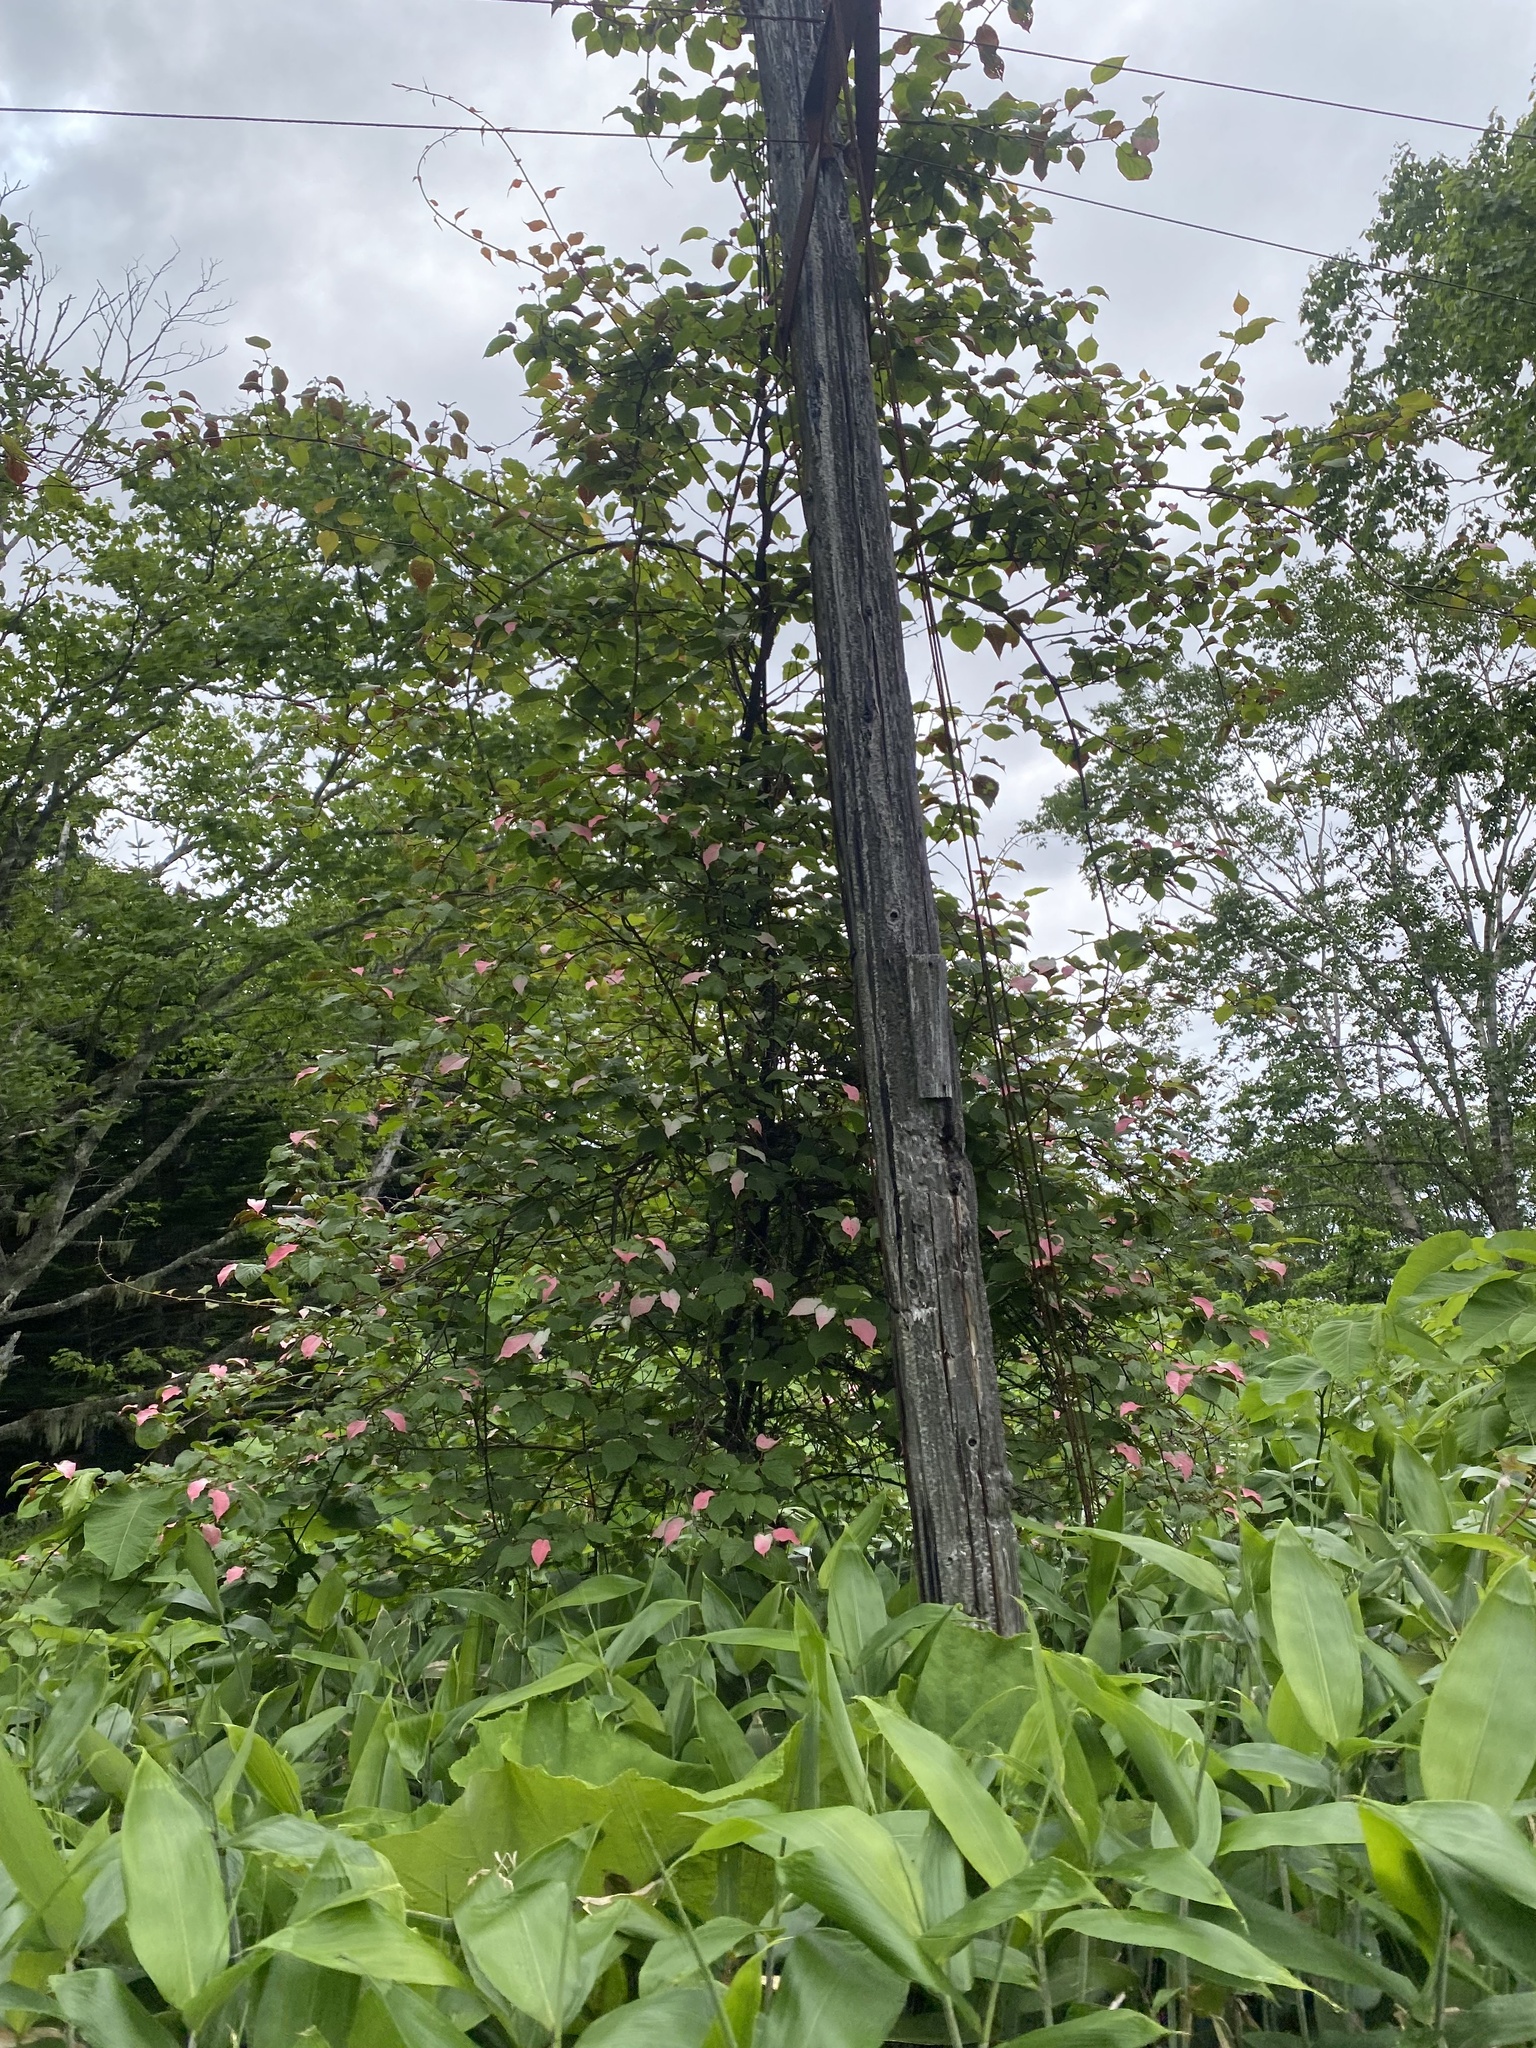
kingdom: Plantae
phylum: Tracheophyta
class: Magnoliopsida
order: Ericales
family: Actinidiaceae
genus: Actinidia
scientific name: Actinidia kolomikta
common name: Arctic beauty kiwi
